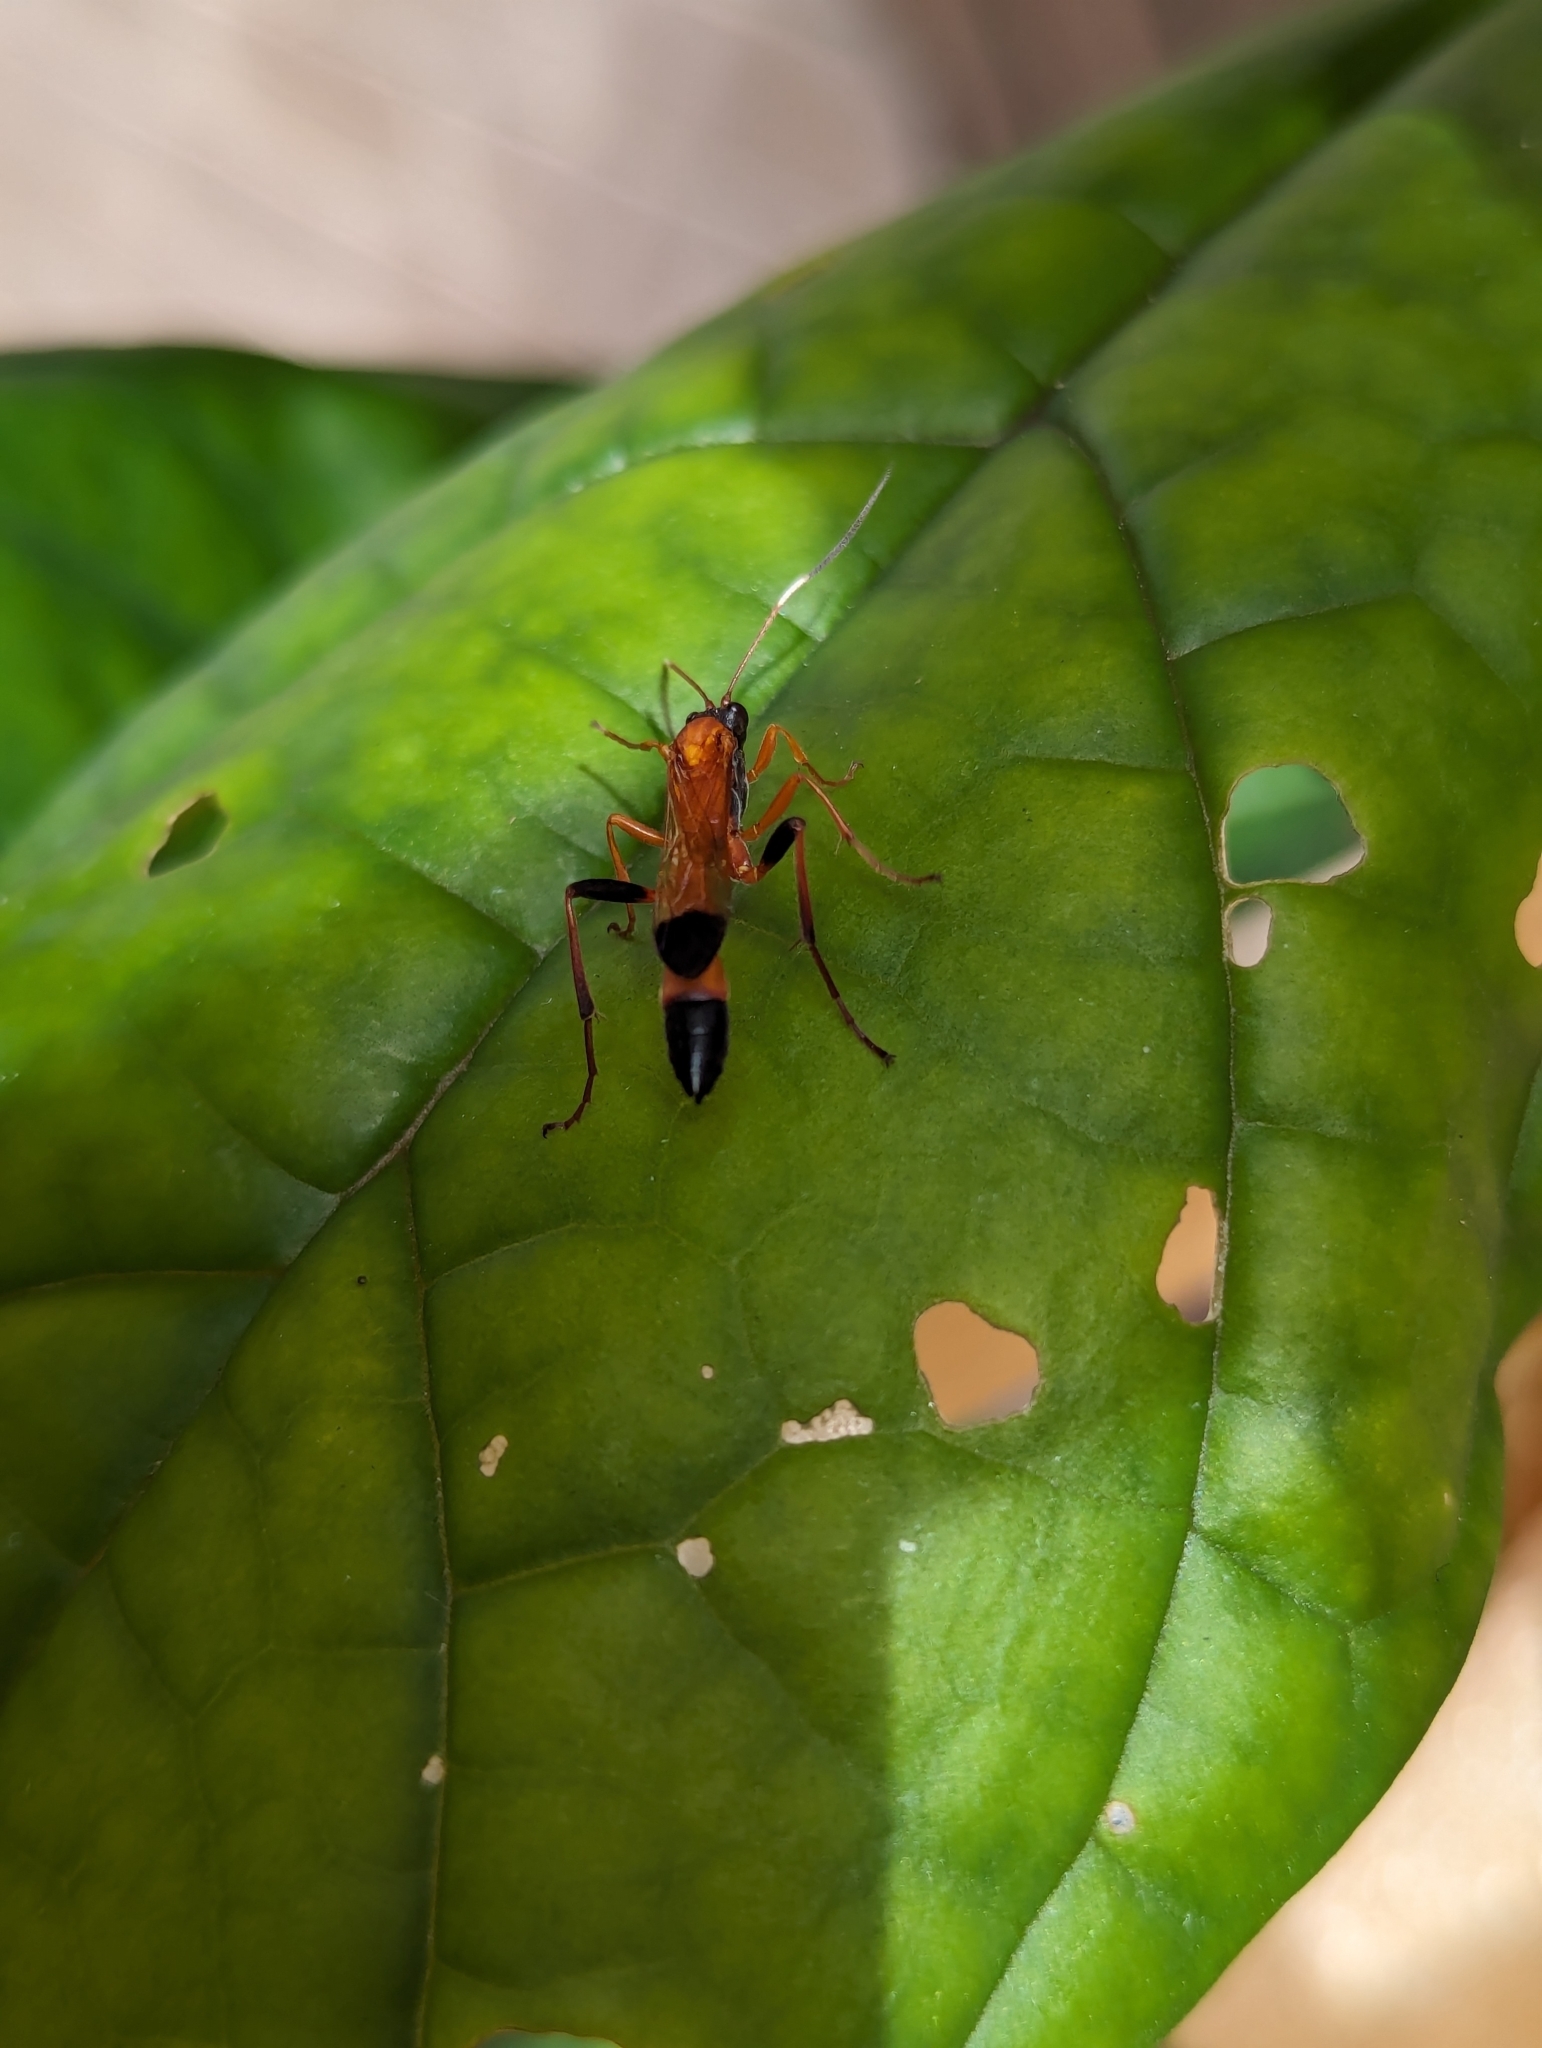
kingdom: Animalia
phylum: Arthropoda
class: Insecta
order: Hymenoptera
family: Ichneumonidae
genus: Ctenochares
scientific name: Ctenochares bicolorus
